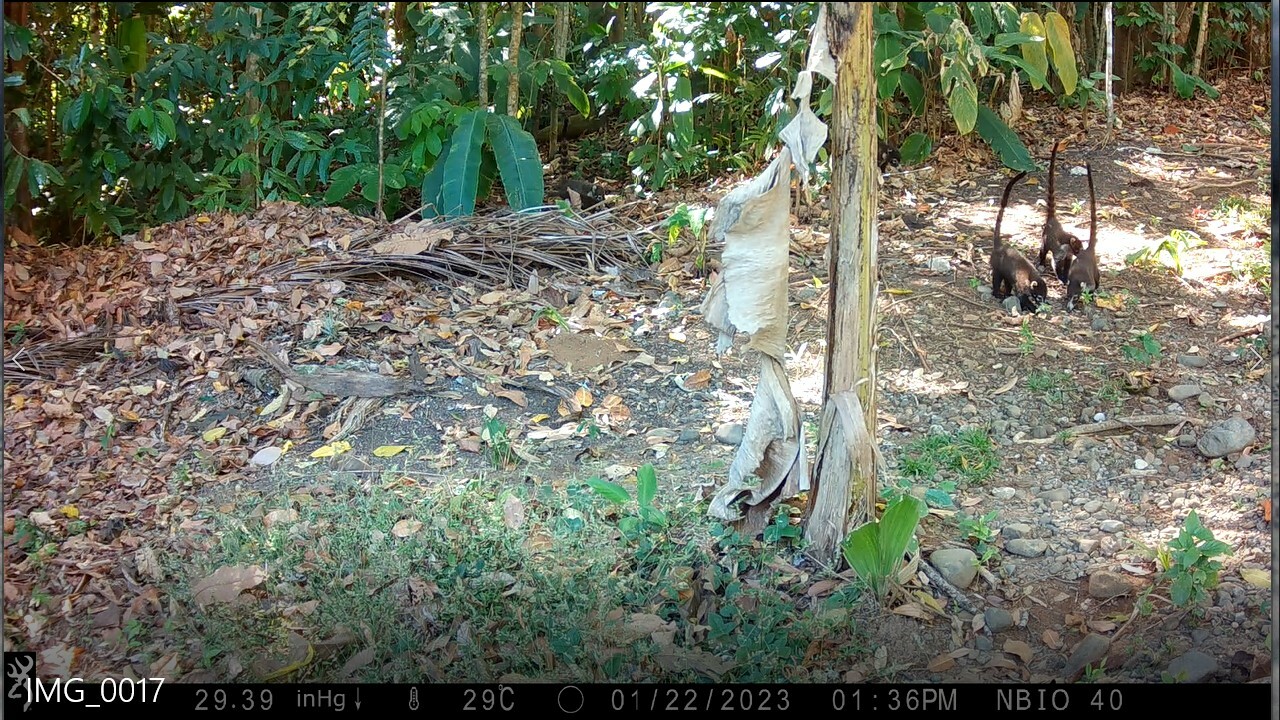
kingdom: Animalia
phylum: Chordata
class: Mammalia
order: Carnivora
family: Procyonidae
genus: Nasua
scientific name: Nasua narica
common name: White-nosed coati
